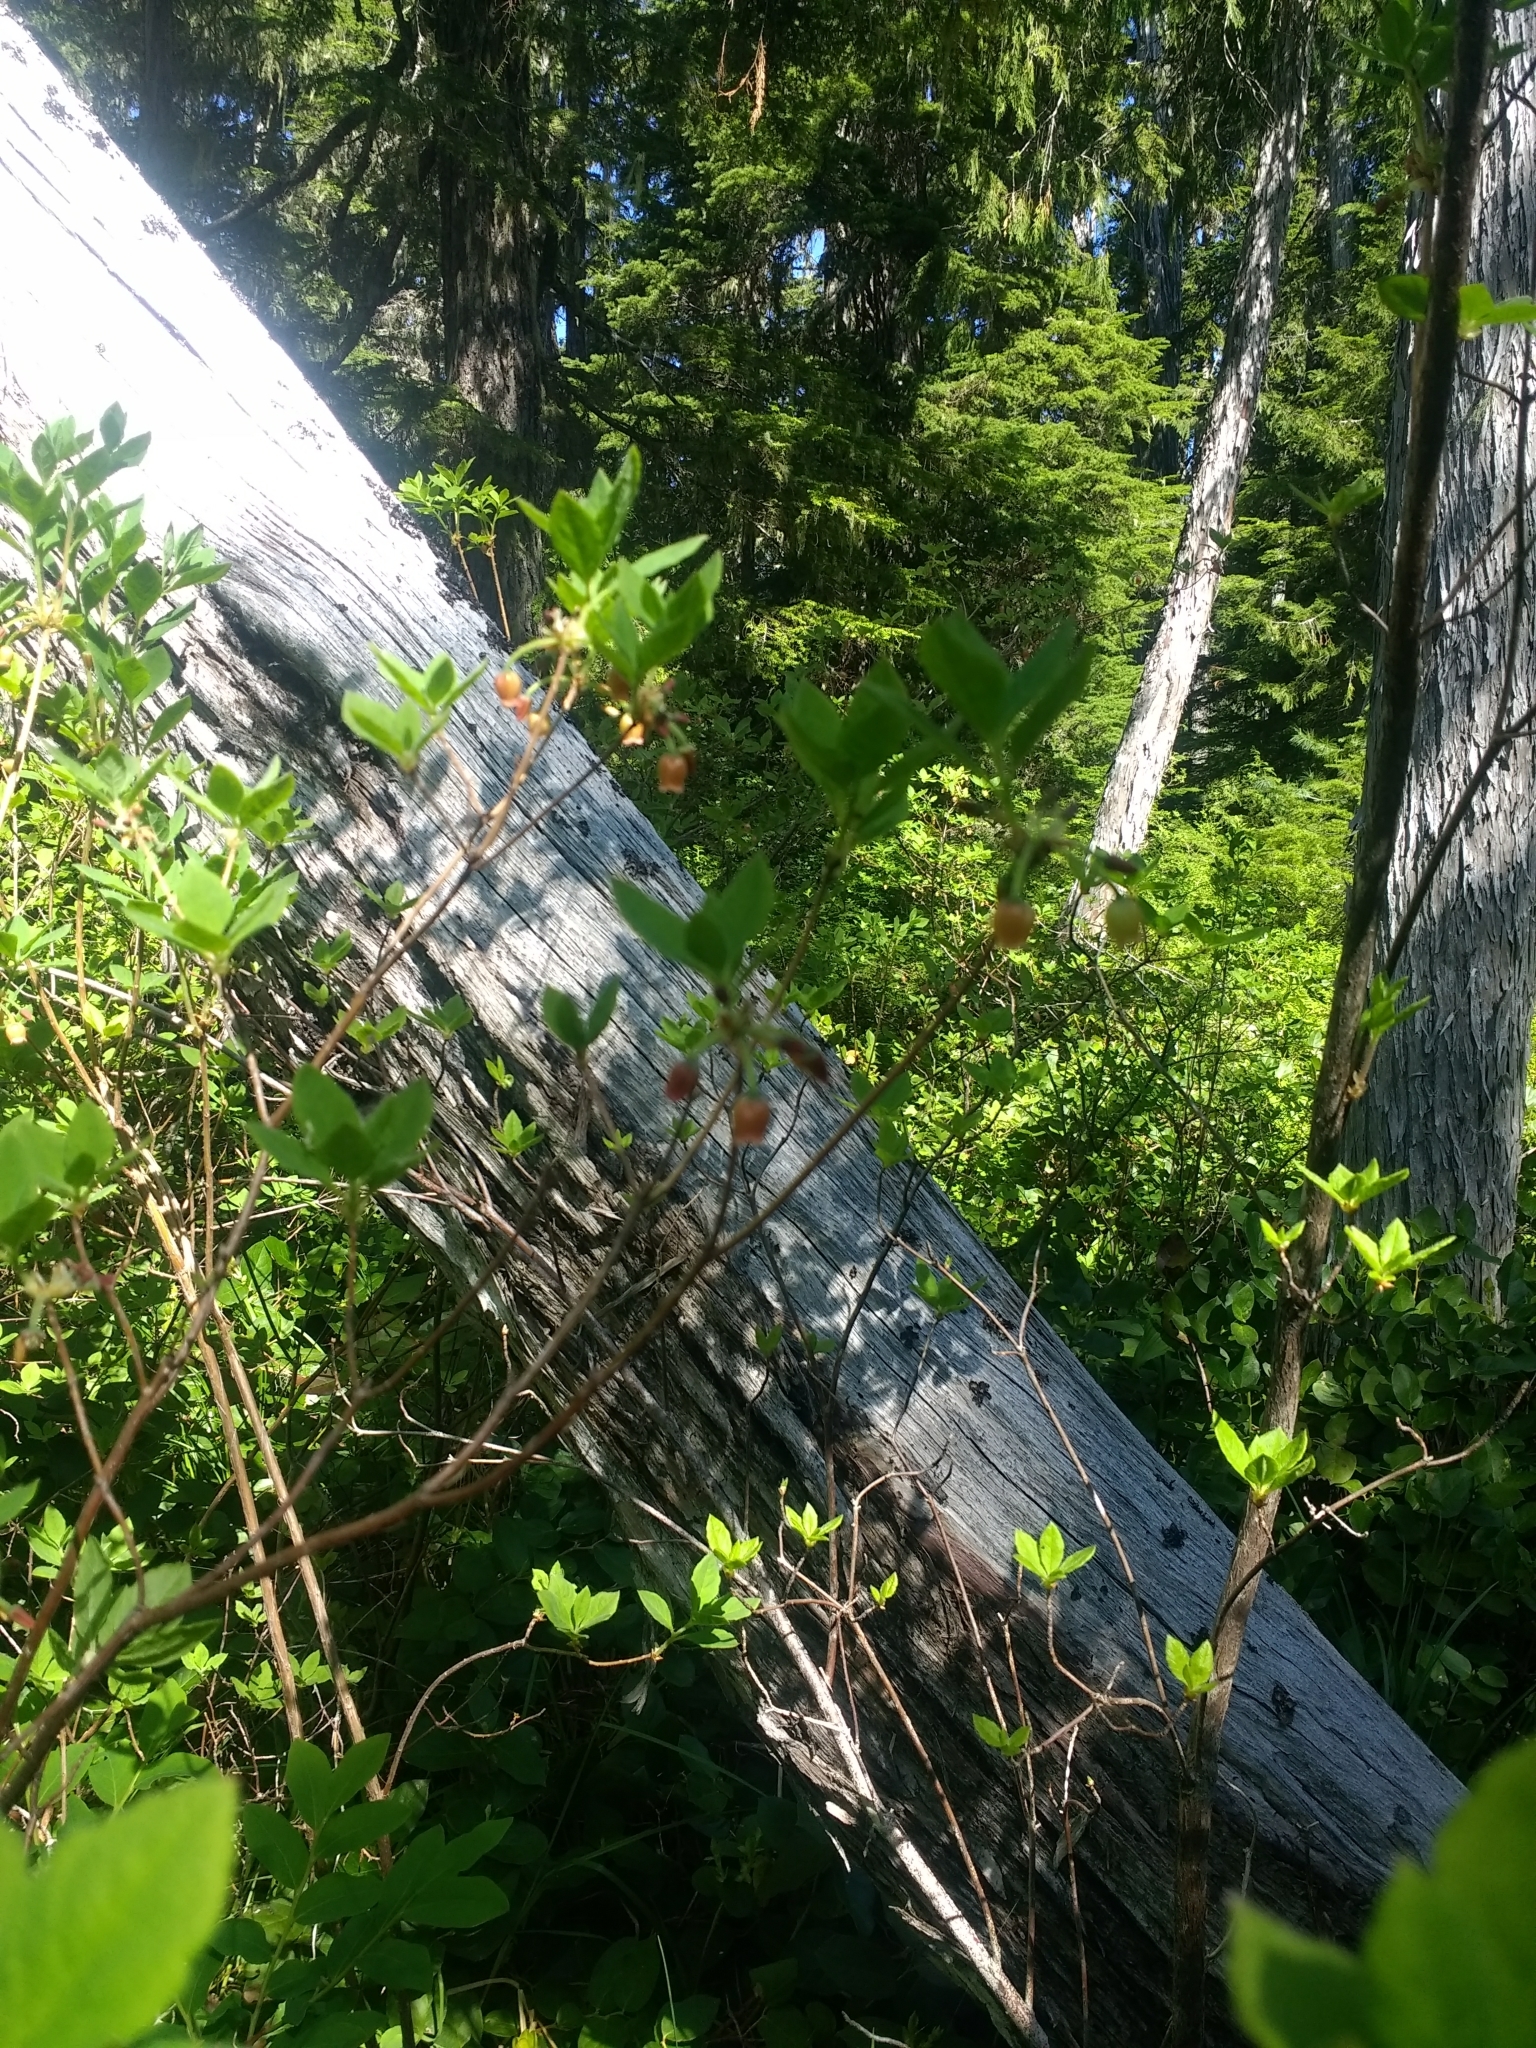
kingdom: Plantae
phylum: Tracheophyta
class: Magnoliopsida
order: Ericales
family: Ericaceae
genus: Rhododendron
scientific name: Rhododendron menziesii
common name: Pacific menziesia
